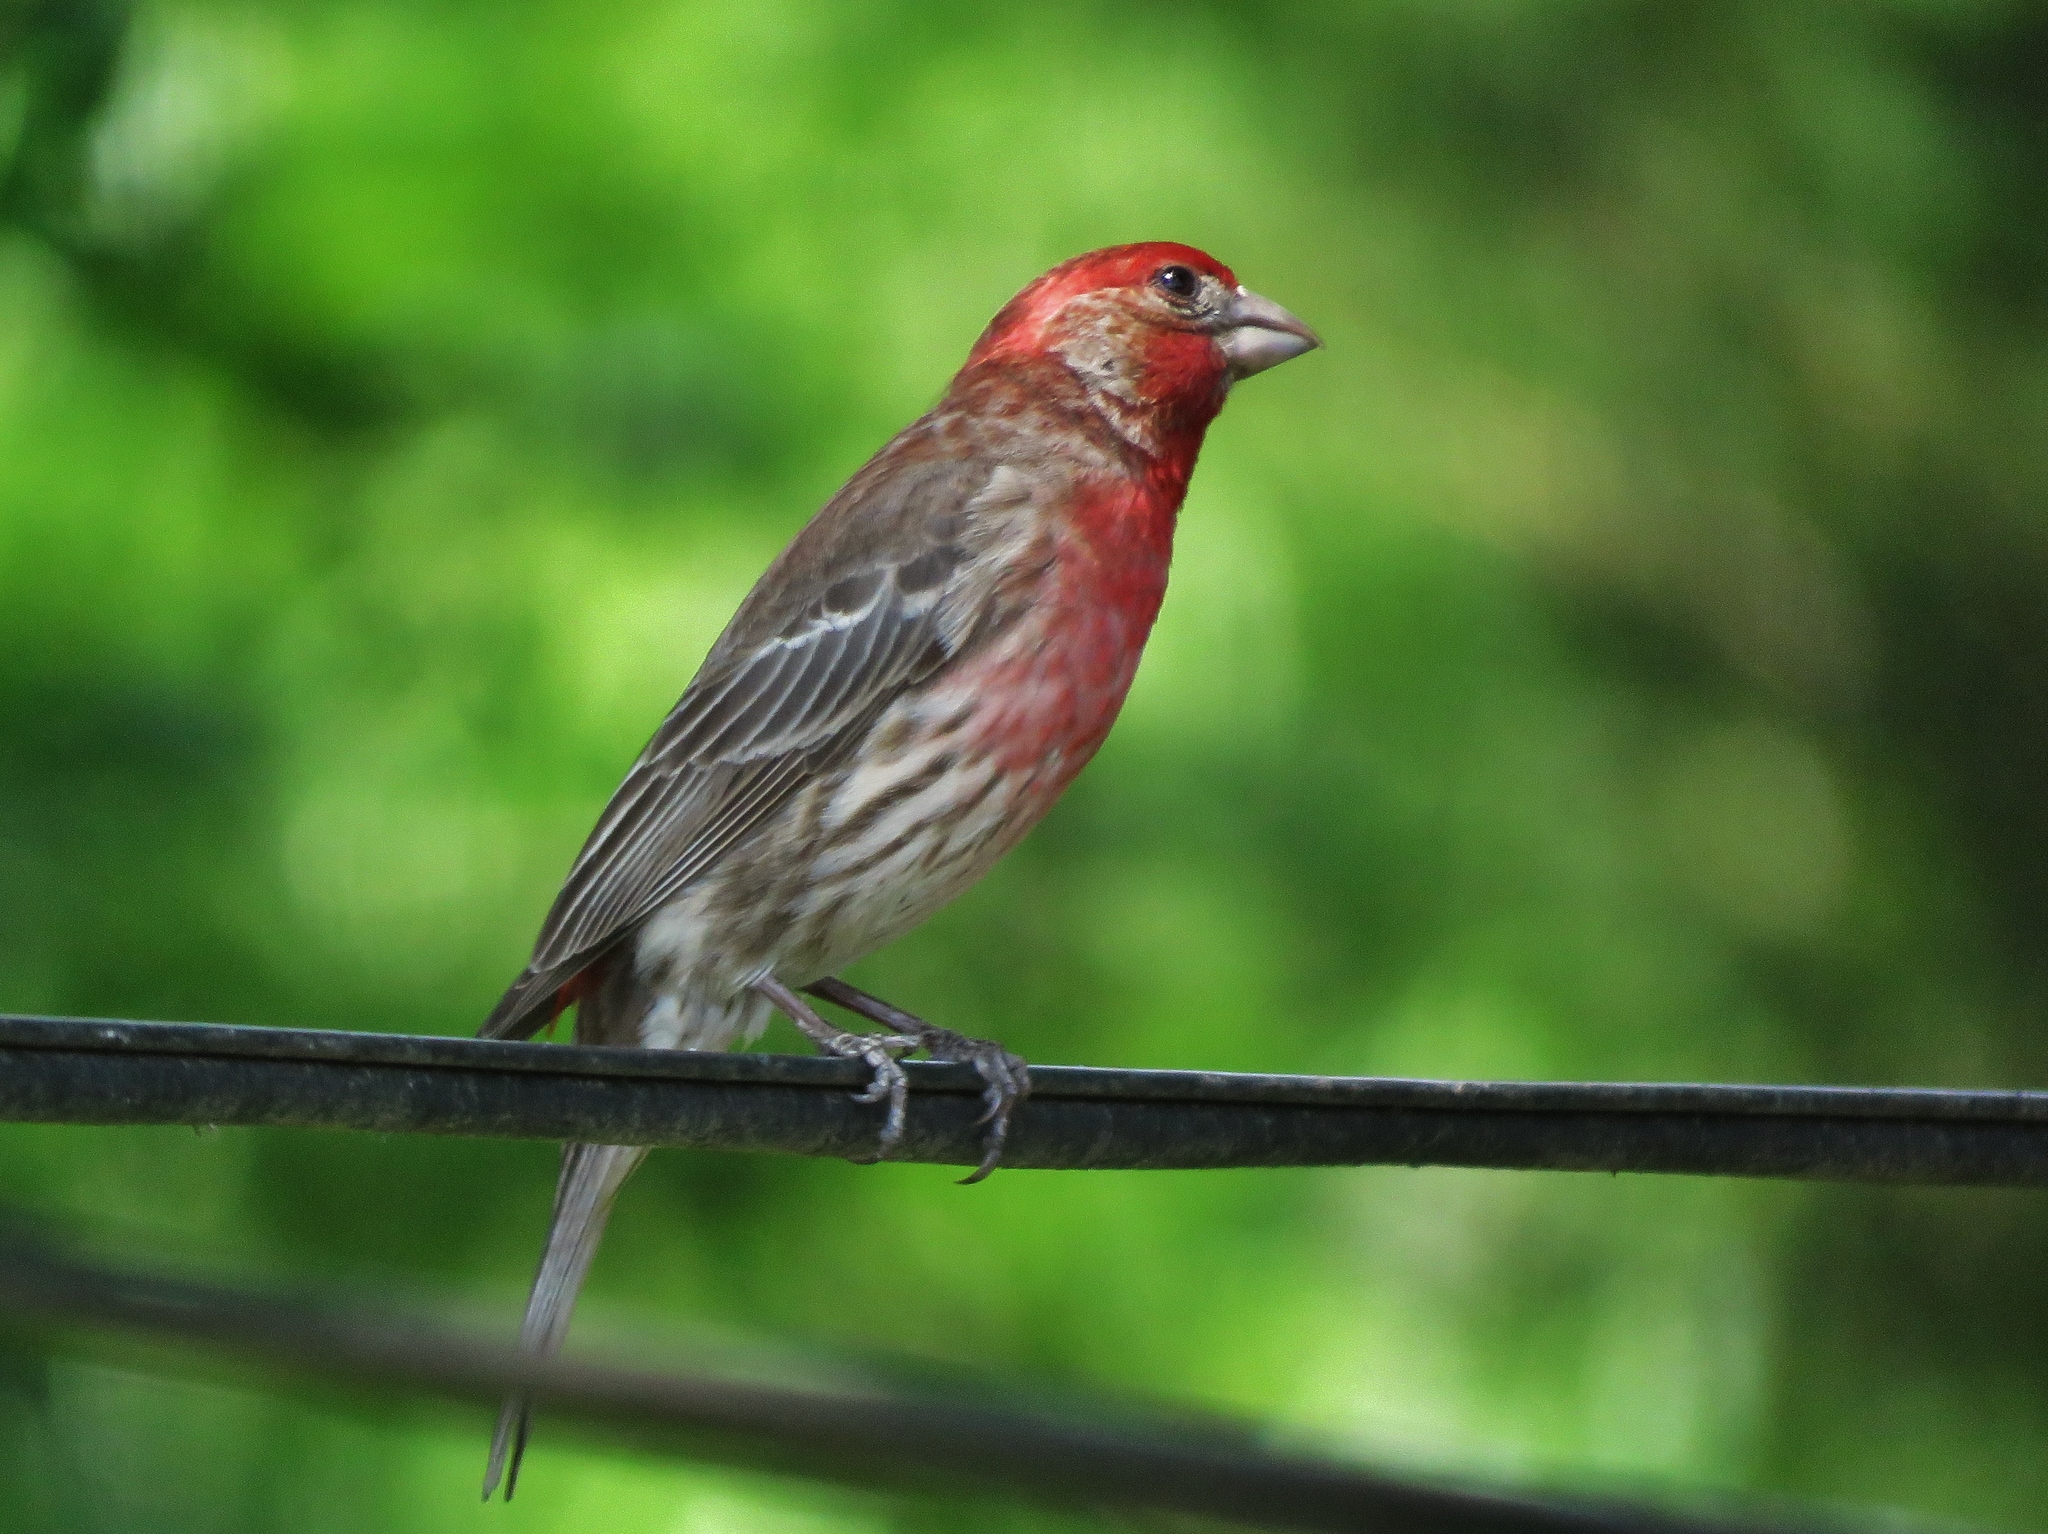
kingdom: Animalia
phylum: Chordata
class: Aves
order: Passeriformes
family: Fringillidae
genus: Haemorhous
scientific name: Haemorhous mexicanus
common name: House finch
